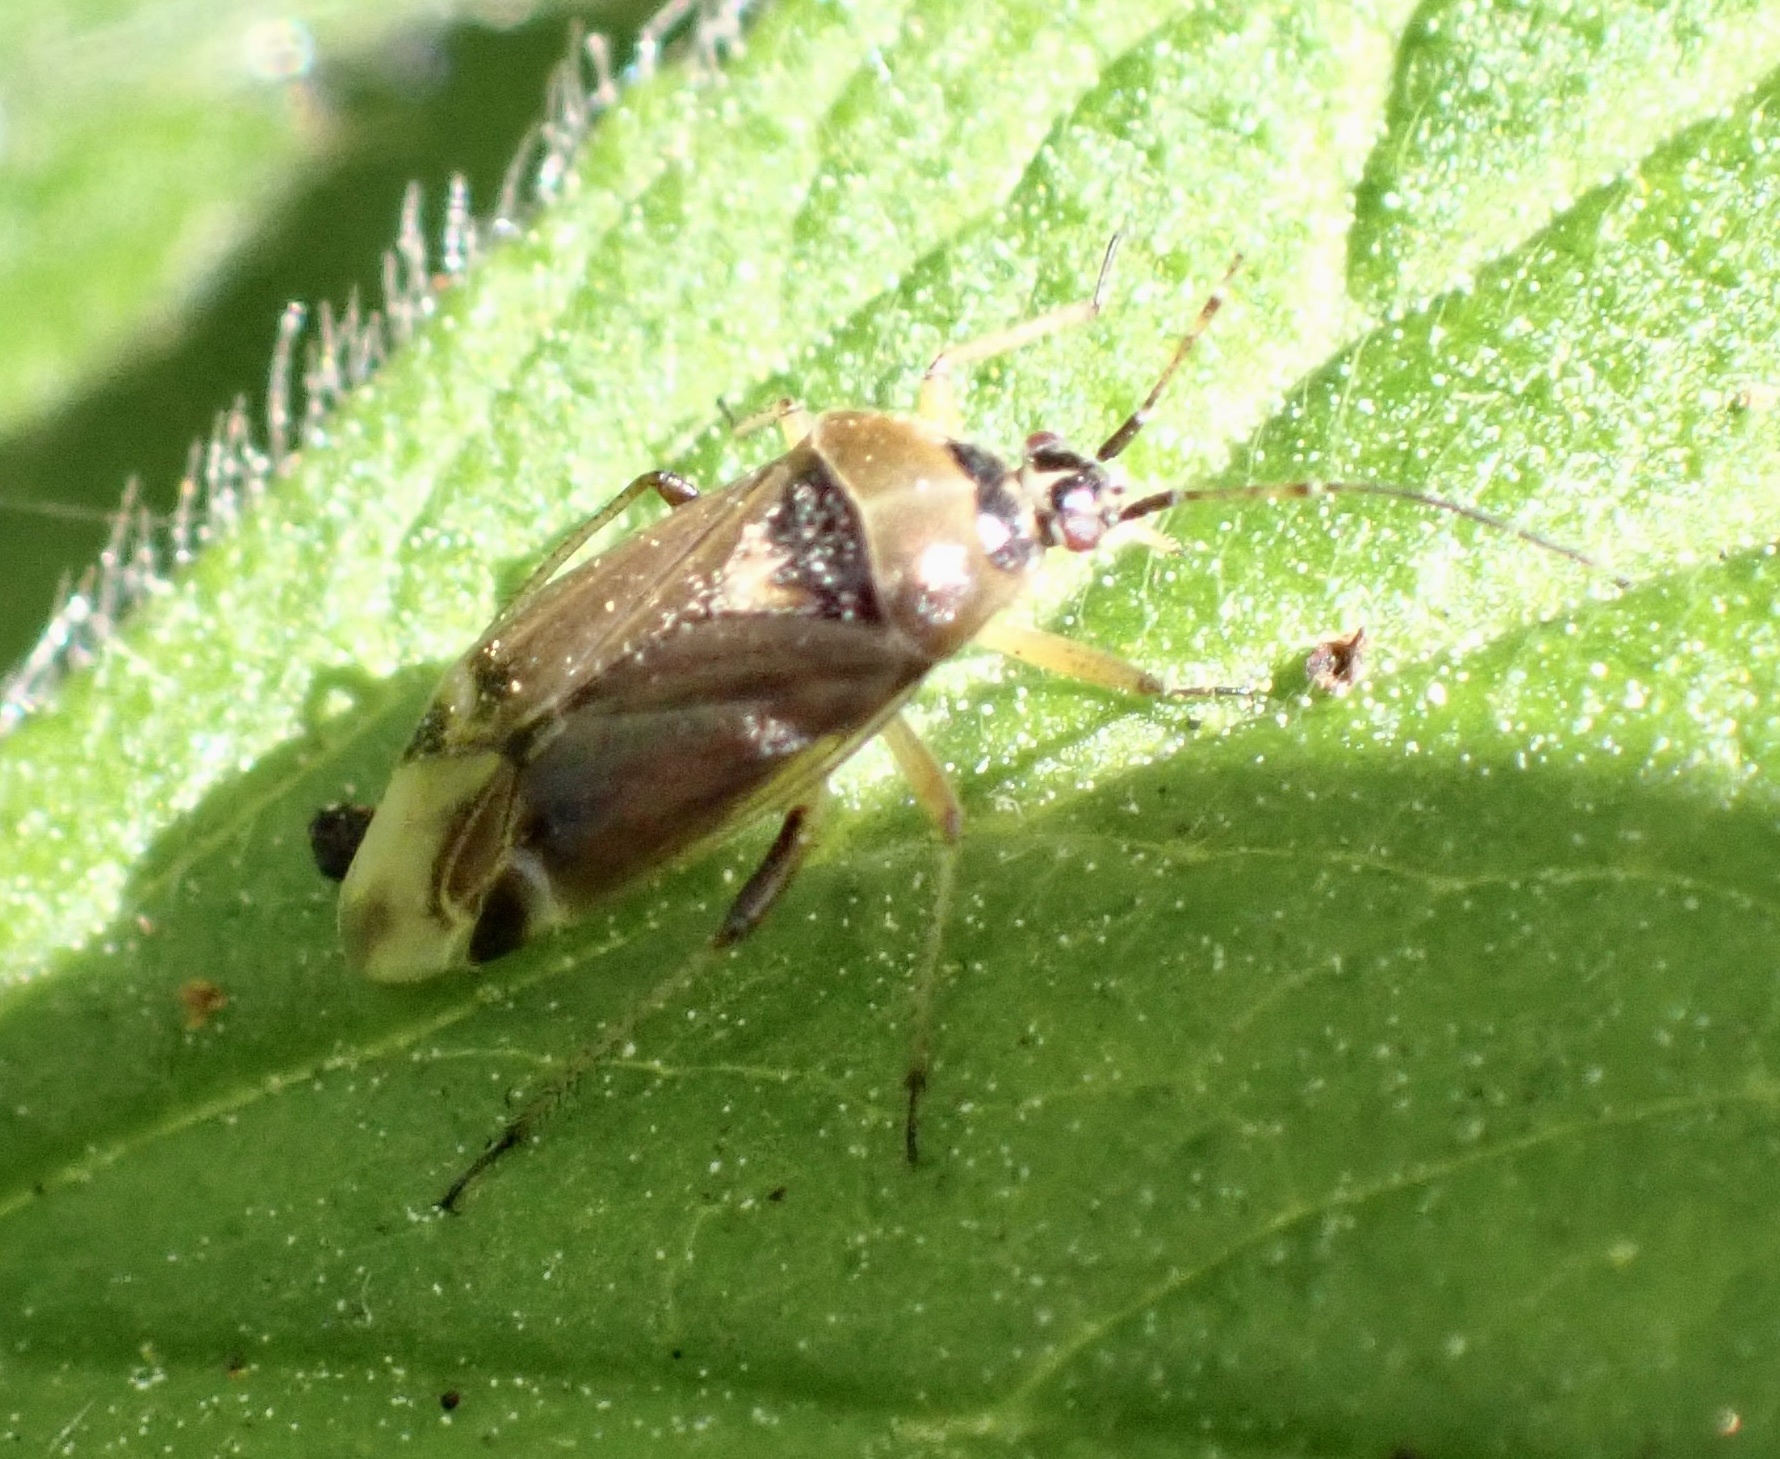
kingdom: Animalia
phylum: Arthropoda
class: Insecta
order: Hemiptera
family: Miridae
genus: Harpocera
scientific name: Harpocera thoracica
